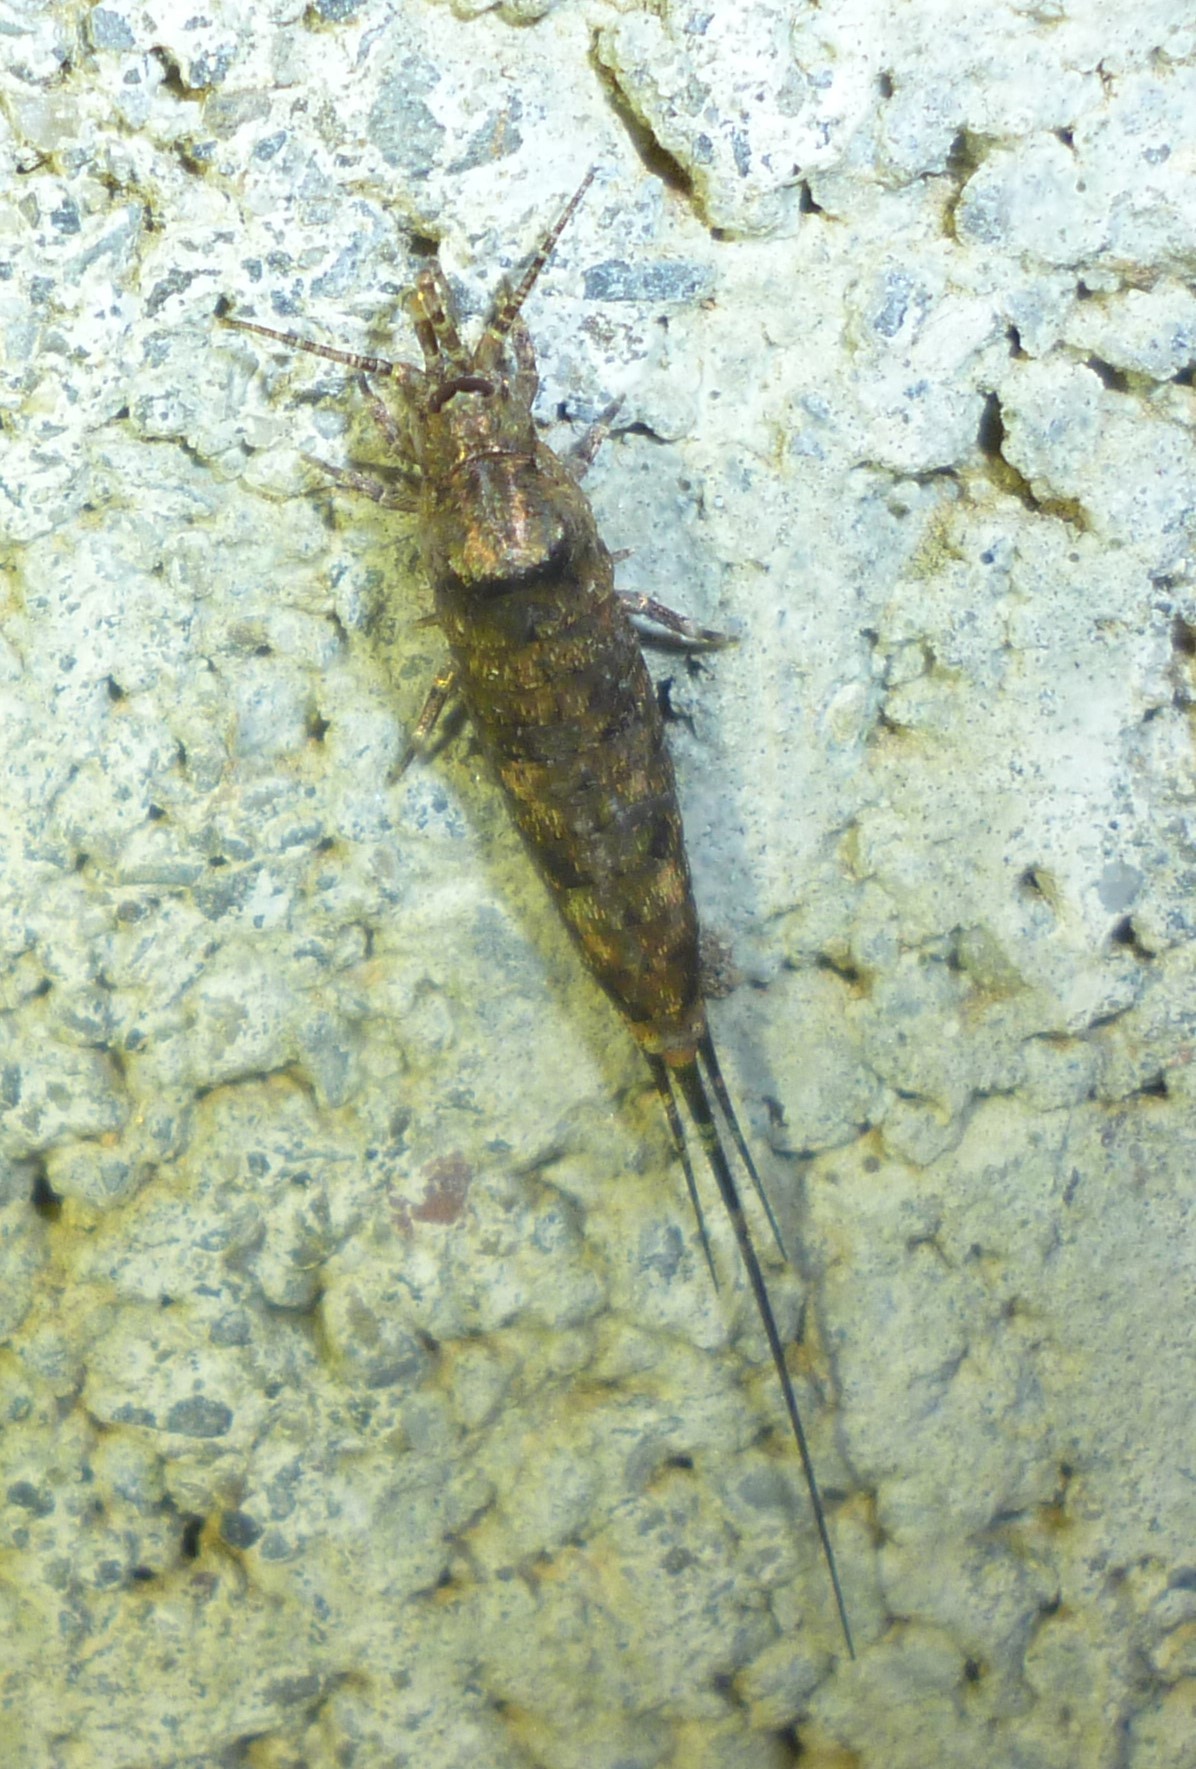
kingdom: Animalia
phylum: Arthropoda
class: Insecta
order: Archaeognatha
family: Machilidae
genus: Trigoniophthalmus
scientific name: Trigoniophthalmus alternatus
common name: Jumping bristletail
